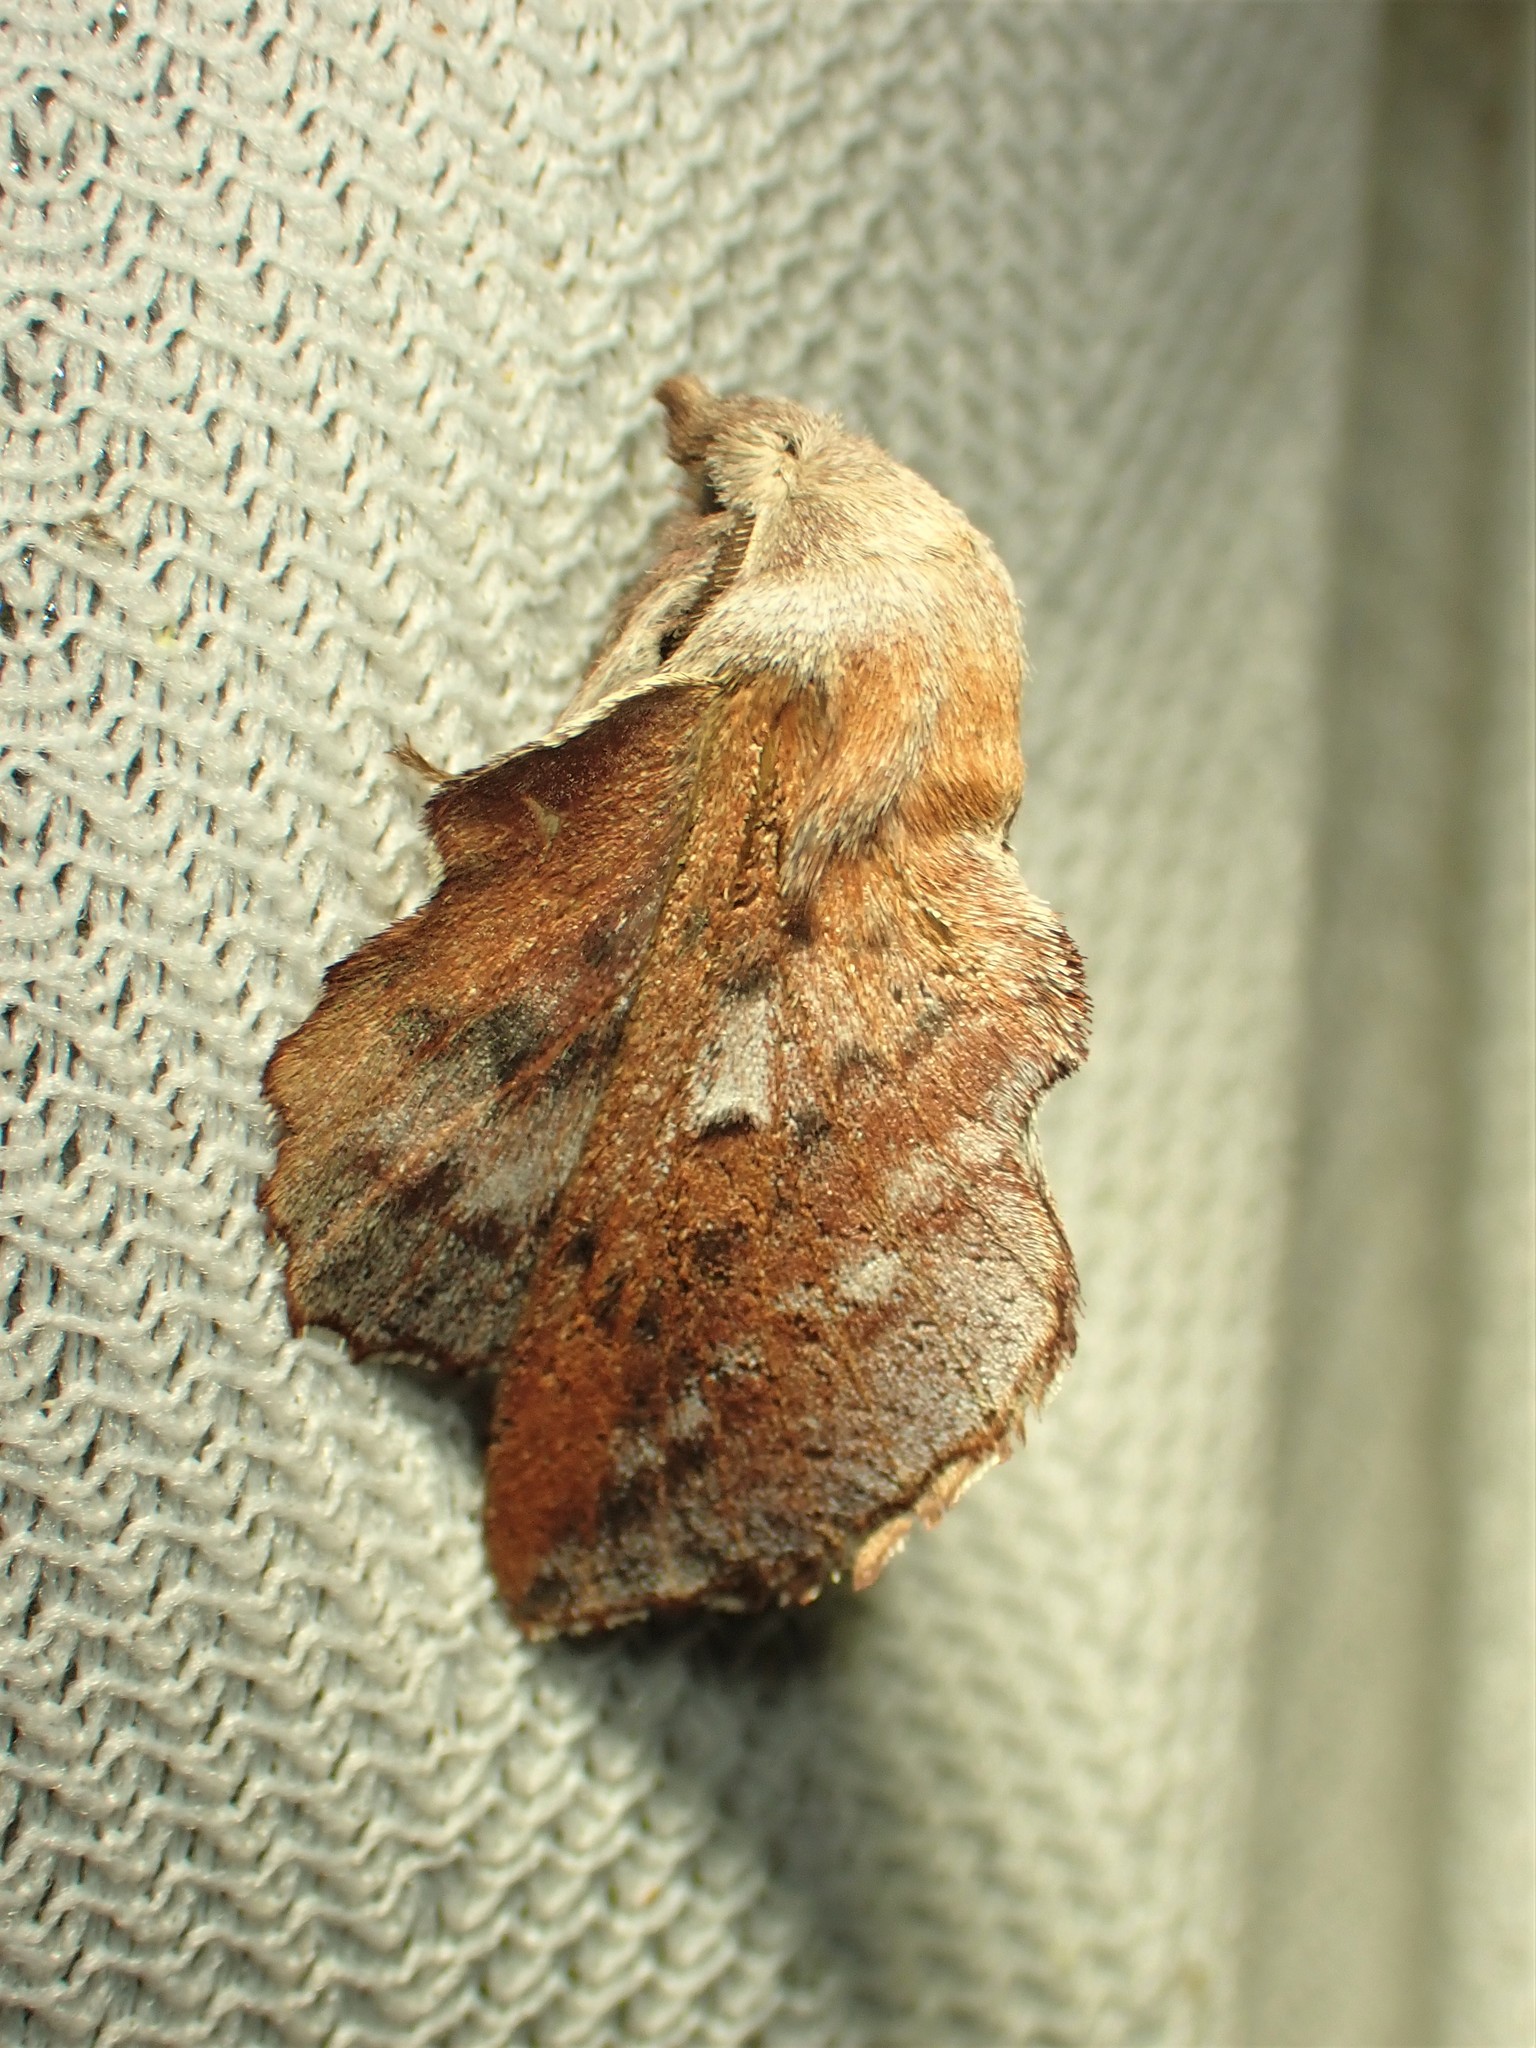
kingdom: Animalia
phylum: Arthropoda
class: Insecta
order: Lepidoptera
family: Lasiocampidae
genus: Phyllodesma
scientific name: Phyllodesma americana
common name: American lappet moth
